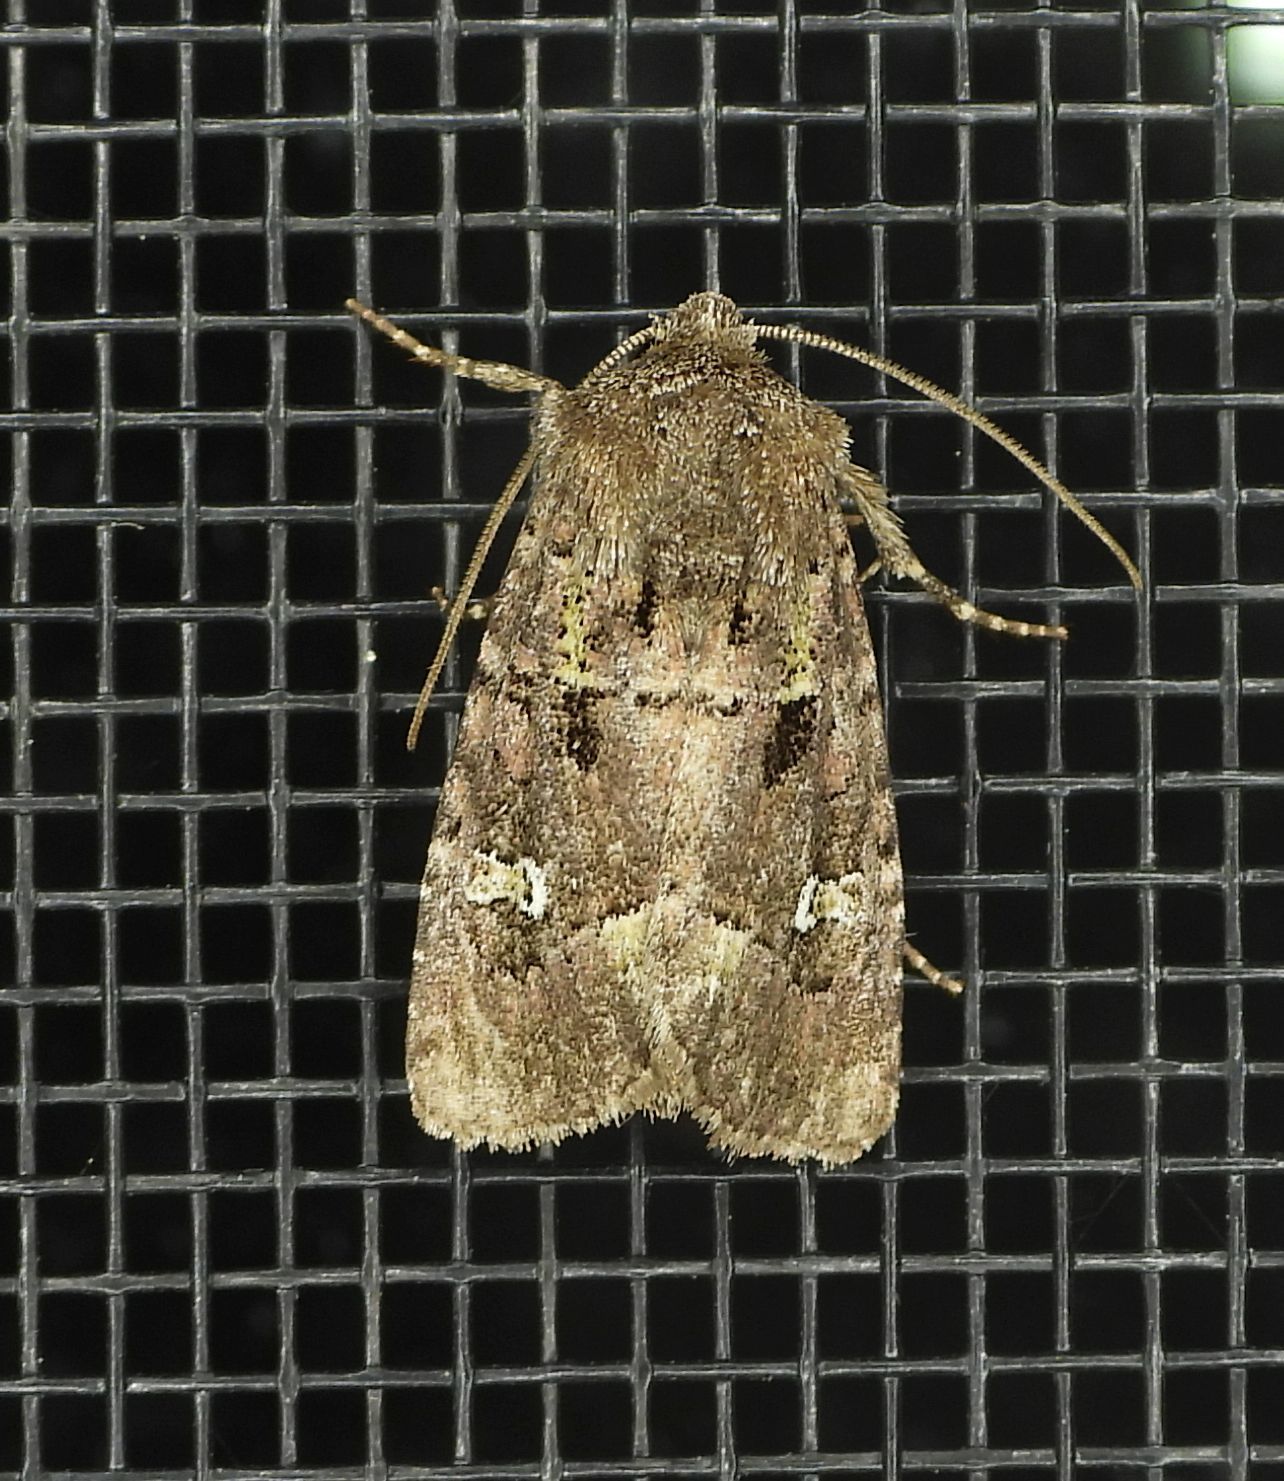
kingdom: Animalia
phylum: Arthropoda
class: Insecta
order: Lepidoptera
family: Noctuidae
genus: Lacinipolia
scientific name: Lacinipolia renigera
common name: Kidney-spotted minor
